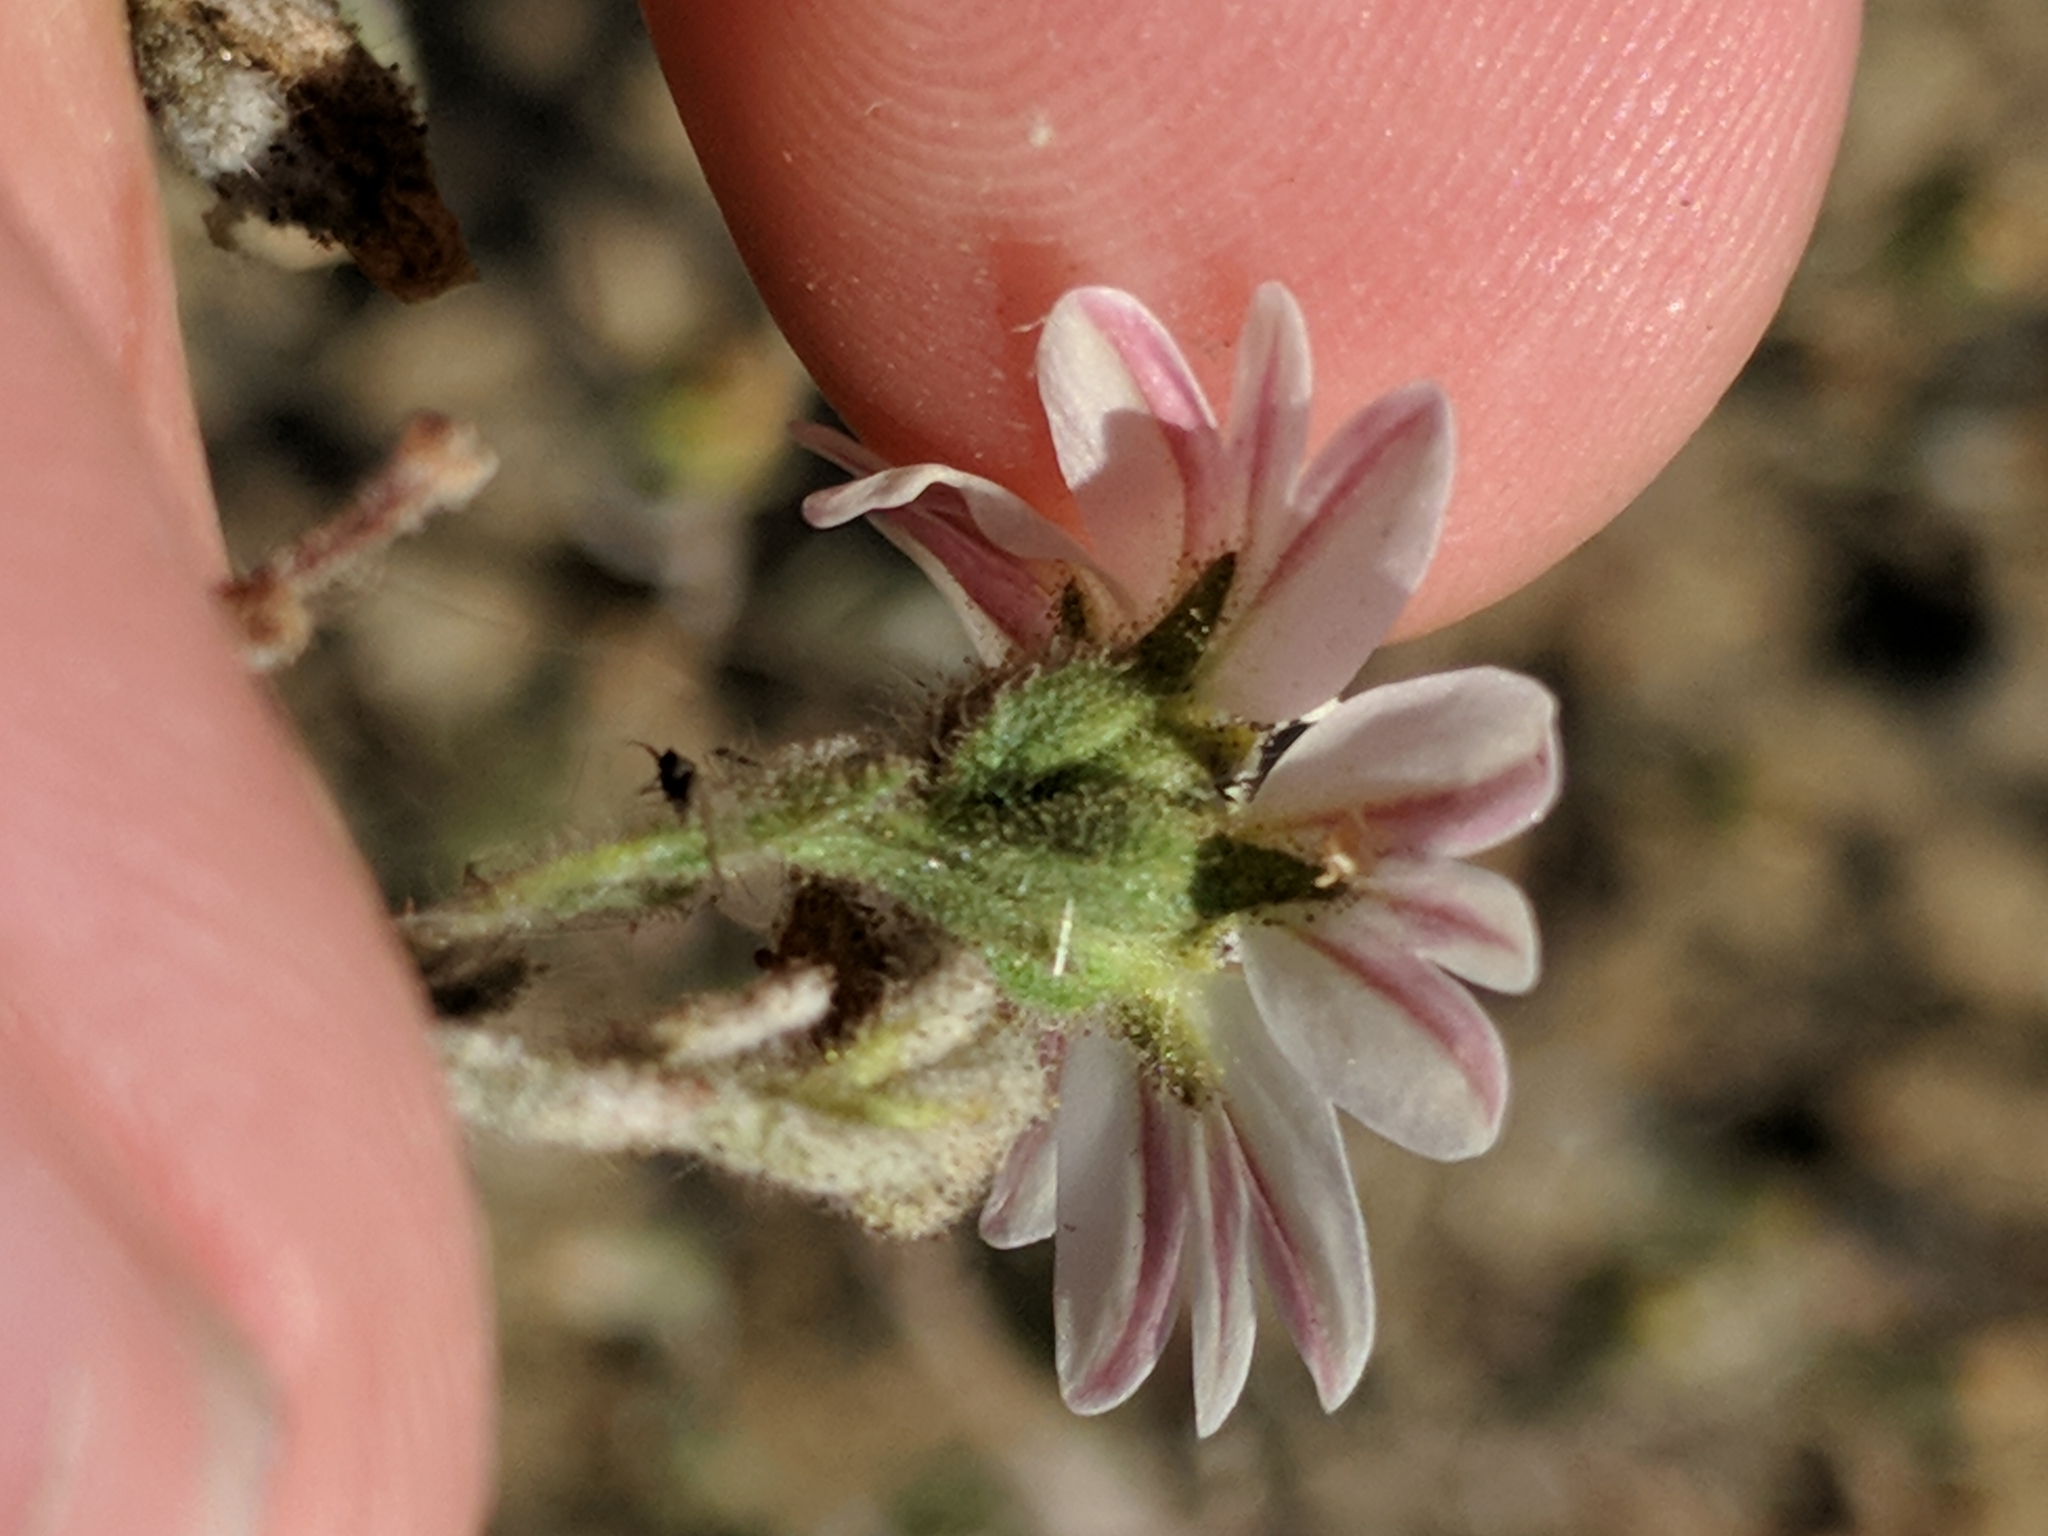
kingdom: Plantae
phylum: Tracheophyta
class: Magnoliopsida
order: Asterales
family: Asteraceae
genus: Hemizonia
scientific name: Hemizonia congesta
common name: Hayfield tarweed
